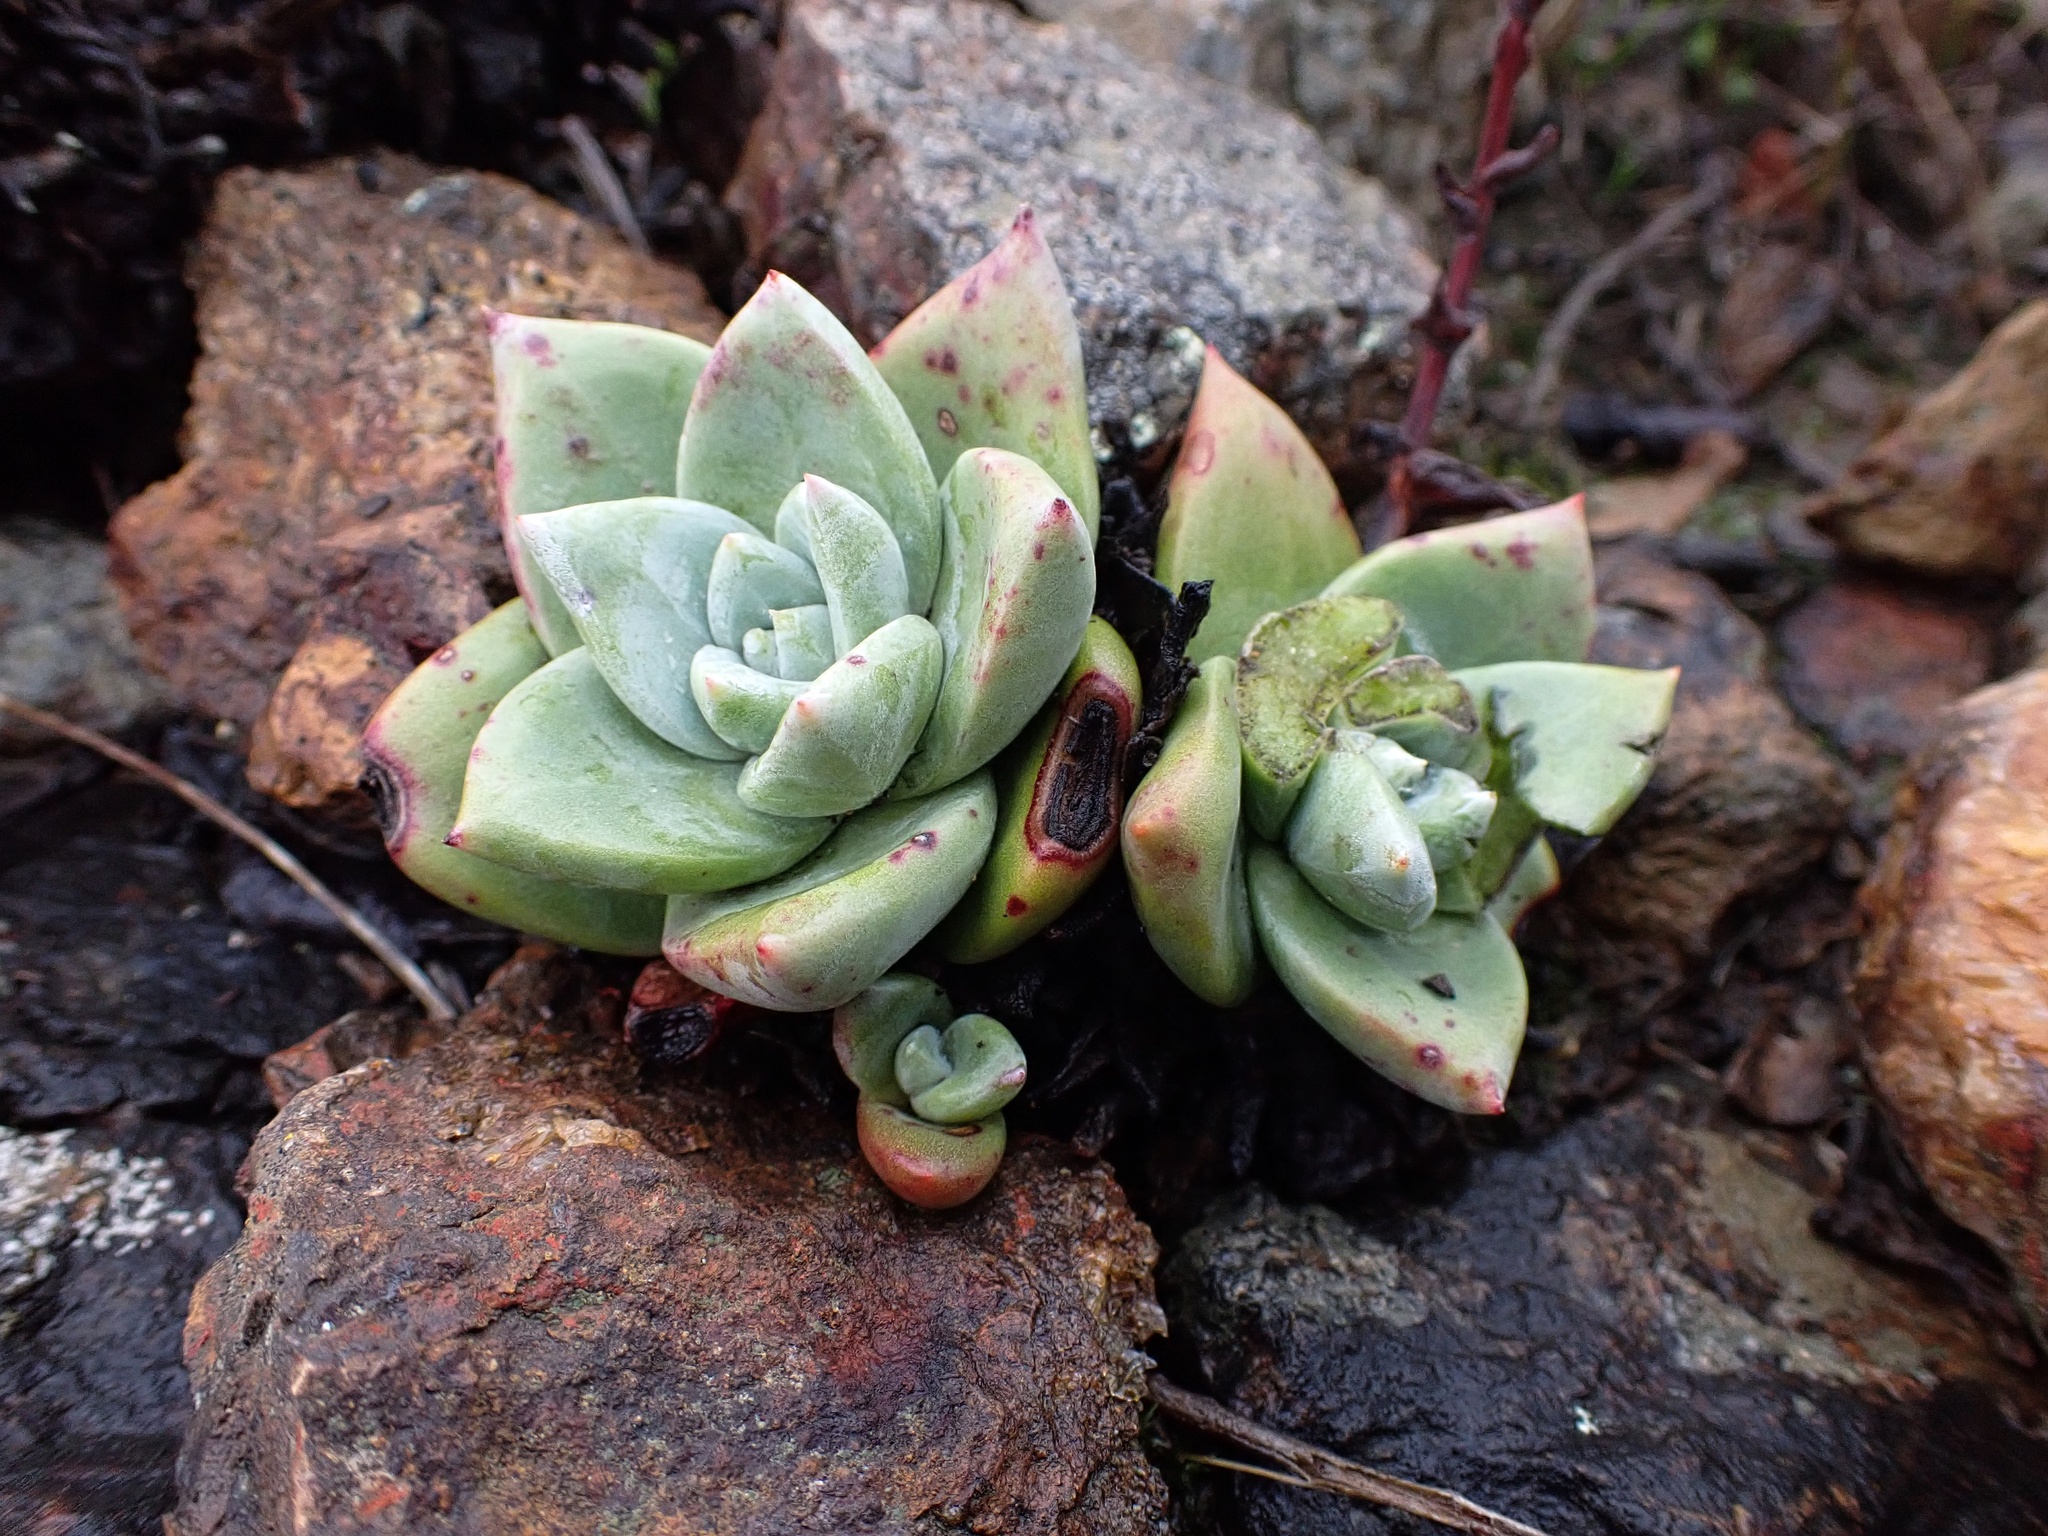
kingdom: Plantae
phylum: Tracheophyta
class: Magnoliopsida
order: Saxifragales
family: Crassulaceae
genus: Dudleya
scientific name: Dudleya farinosa
